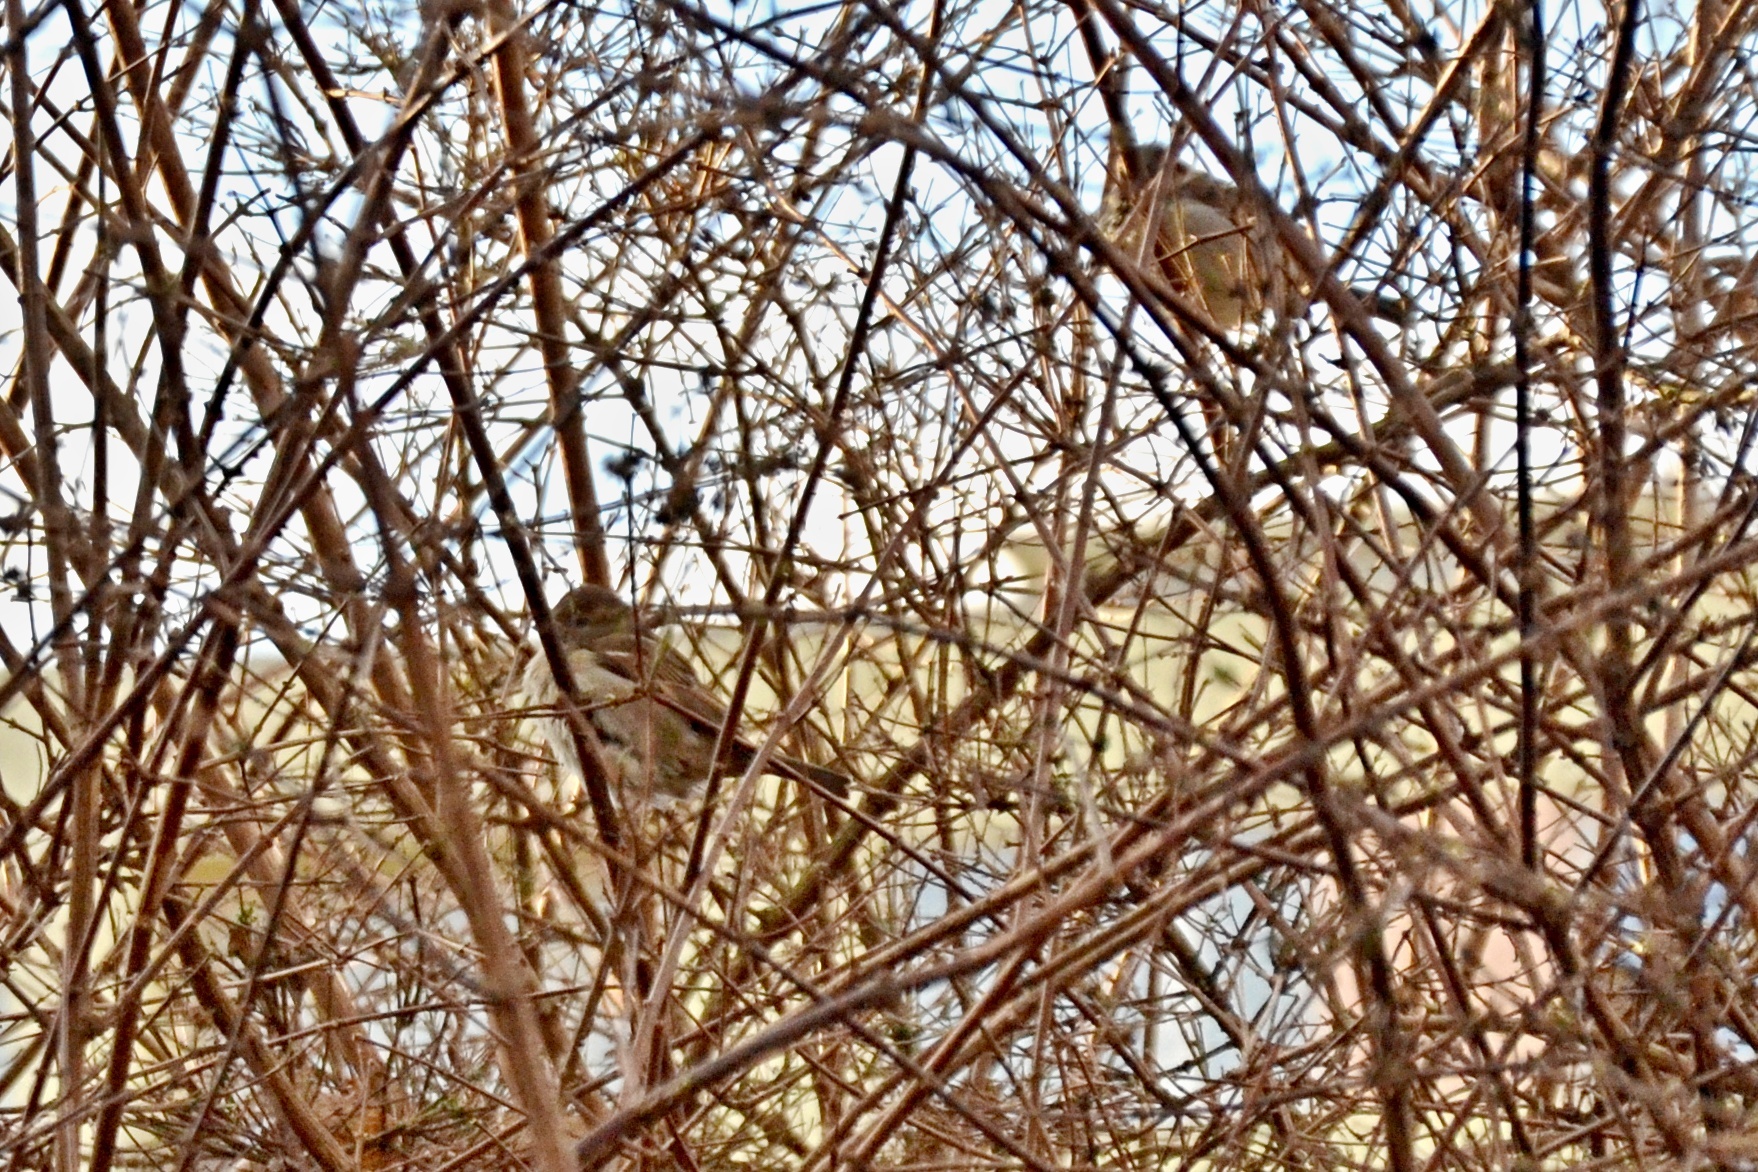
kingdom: Animalia
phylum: Chordata
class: Aves
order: Passeriformes
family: Passeridae
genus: Passer
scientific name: Passer domesticus
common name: House sparrow
